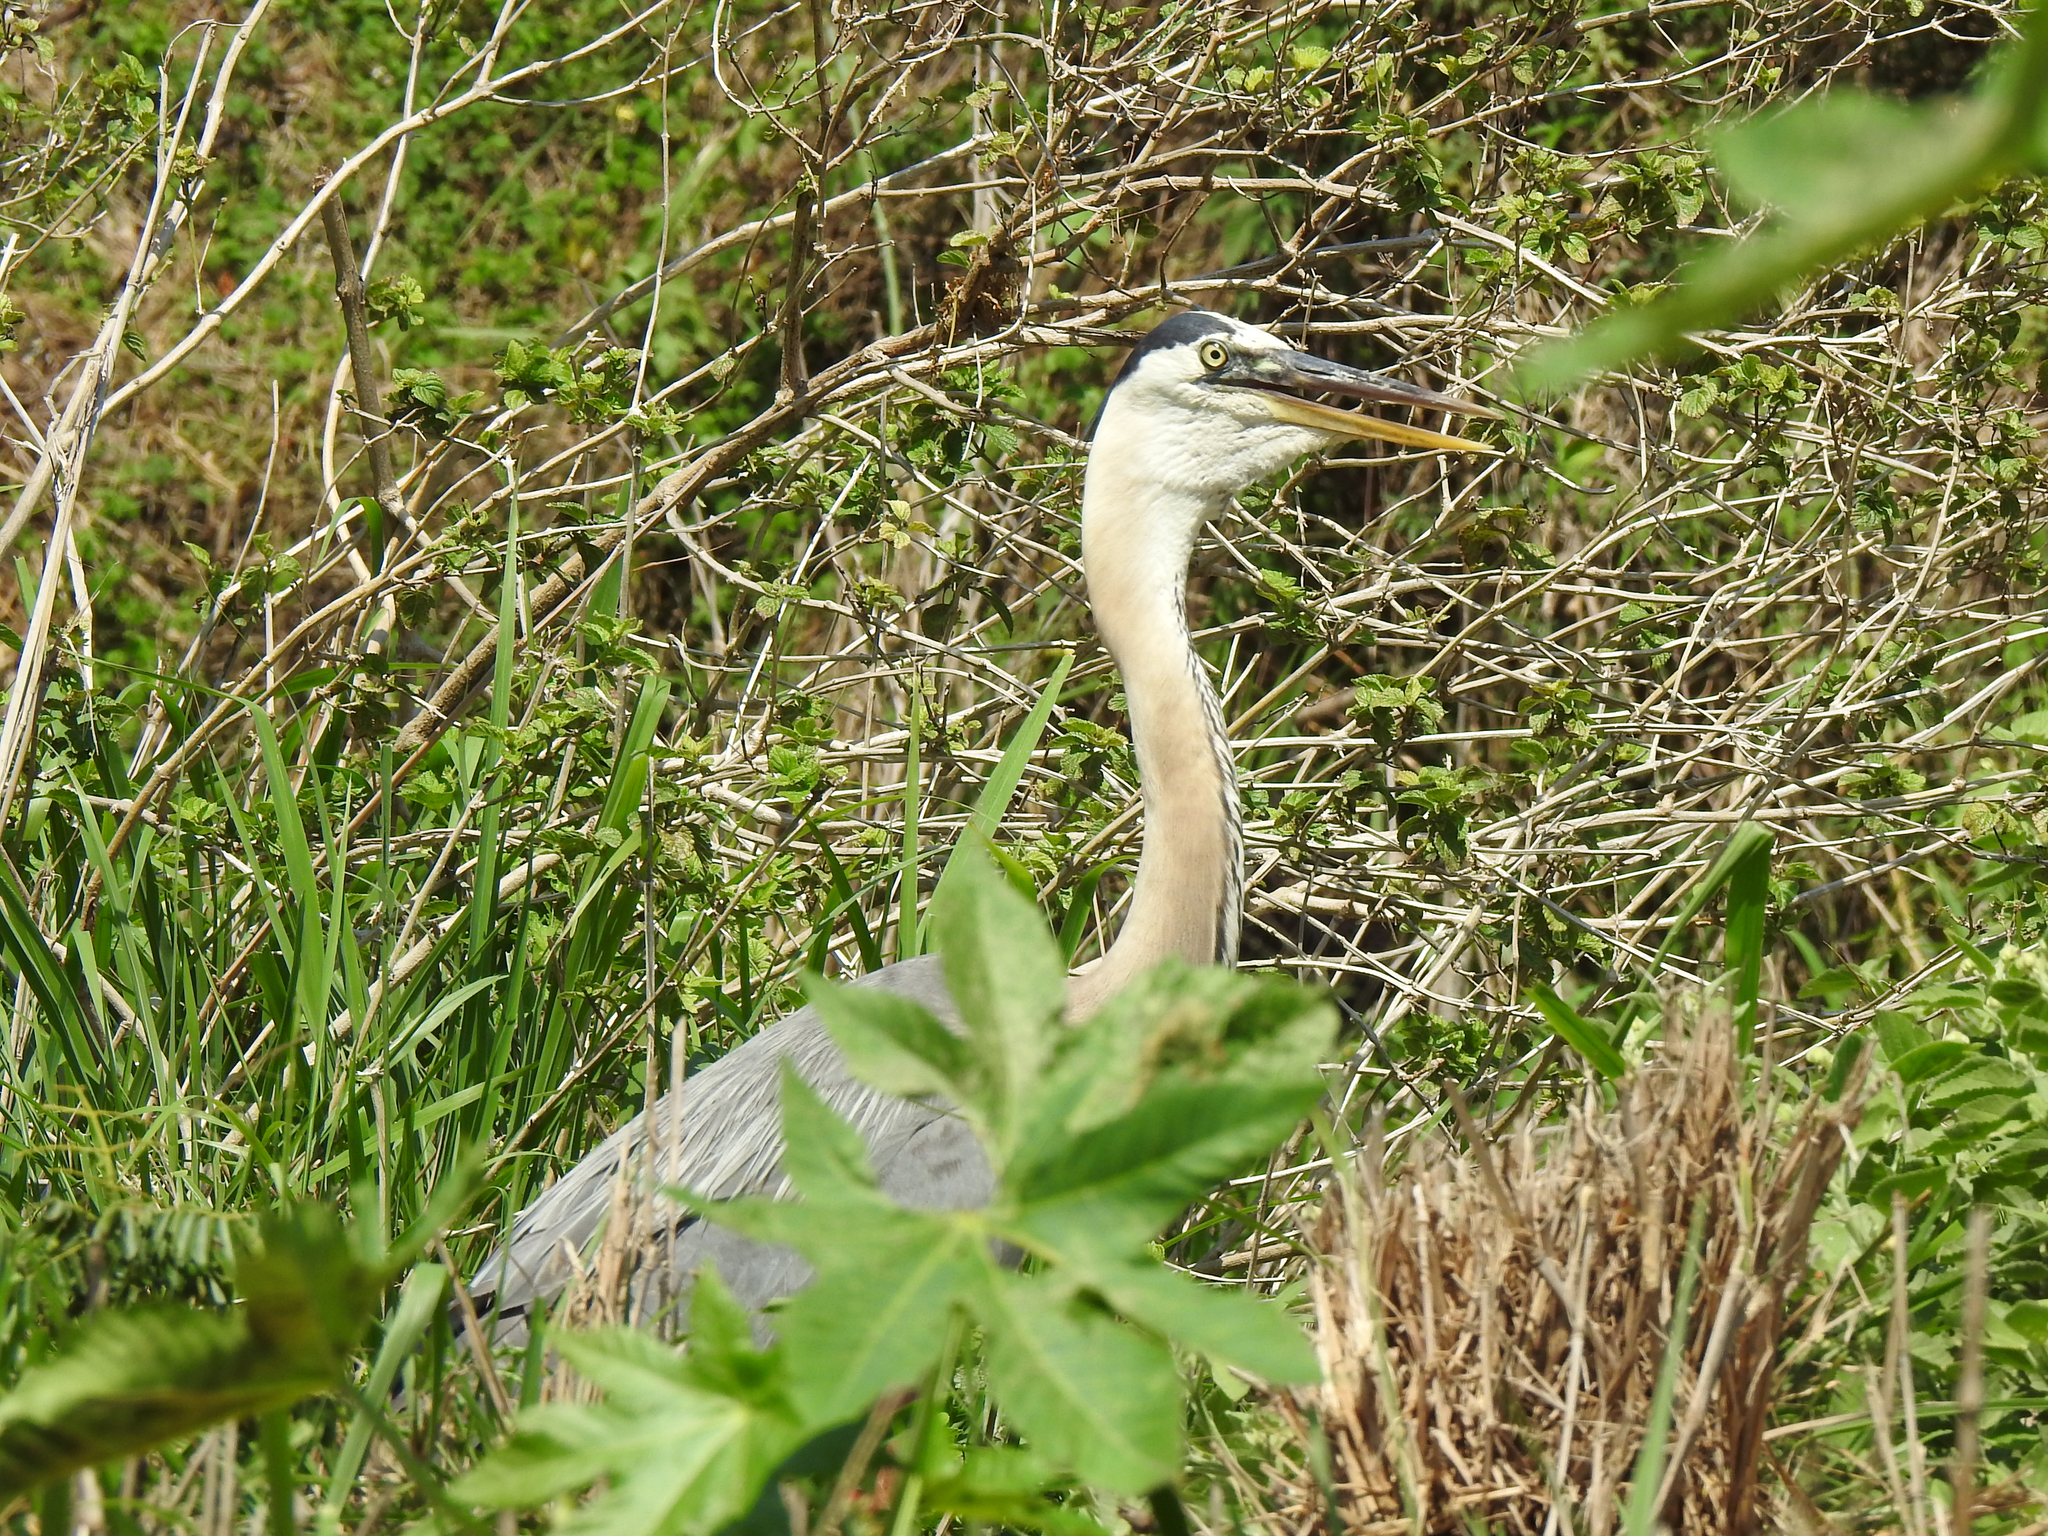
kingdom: Animalia
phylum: Chordata
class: Aves
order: Pelecaniformes
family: Ardeidae
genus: Ardea
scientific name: Ardea herodias
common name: Great blue heron
